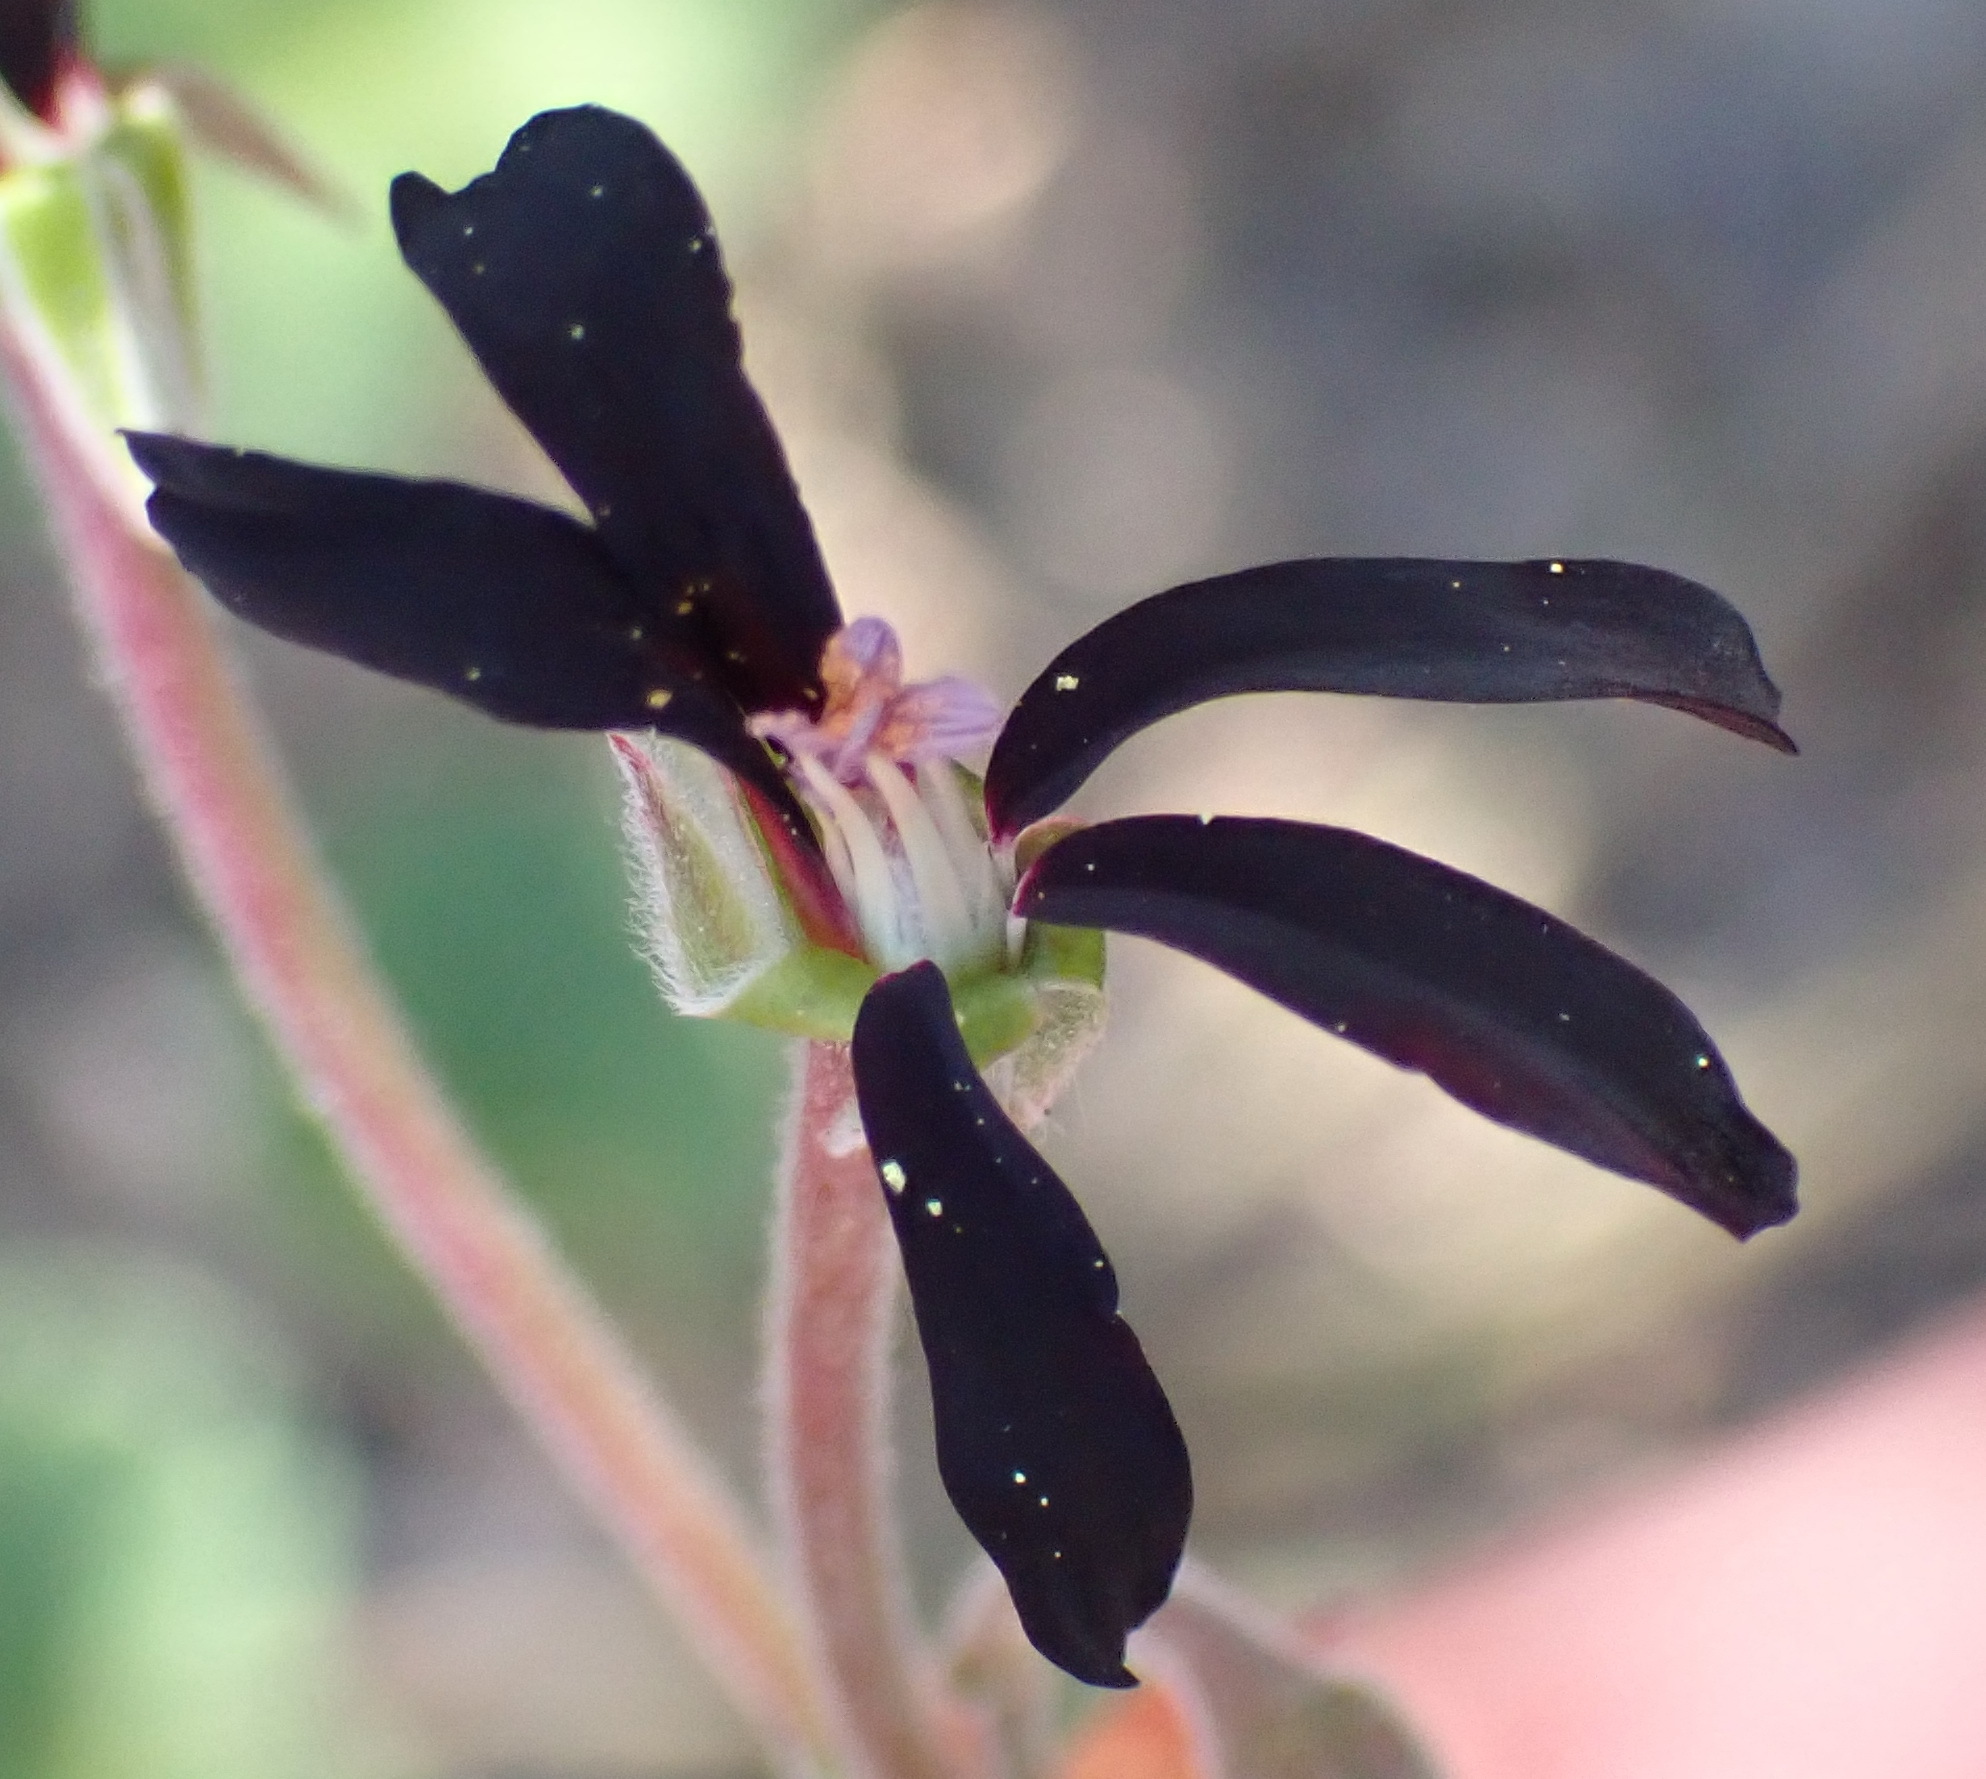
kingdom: Plantae
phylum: Tracheophyta
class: Magnoliopsida
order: Geraniales
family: Geraniaceae
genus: Pelargonium
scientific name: Pelargonium sidoides
